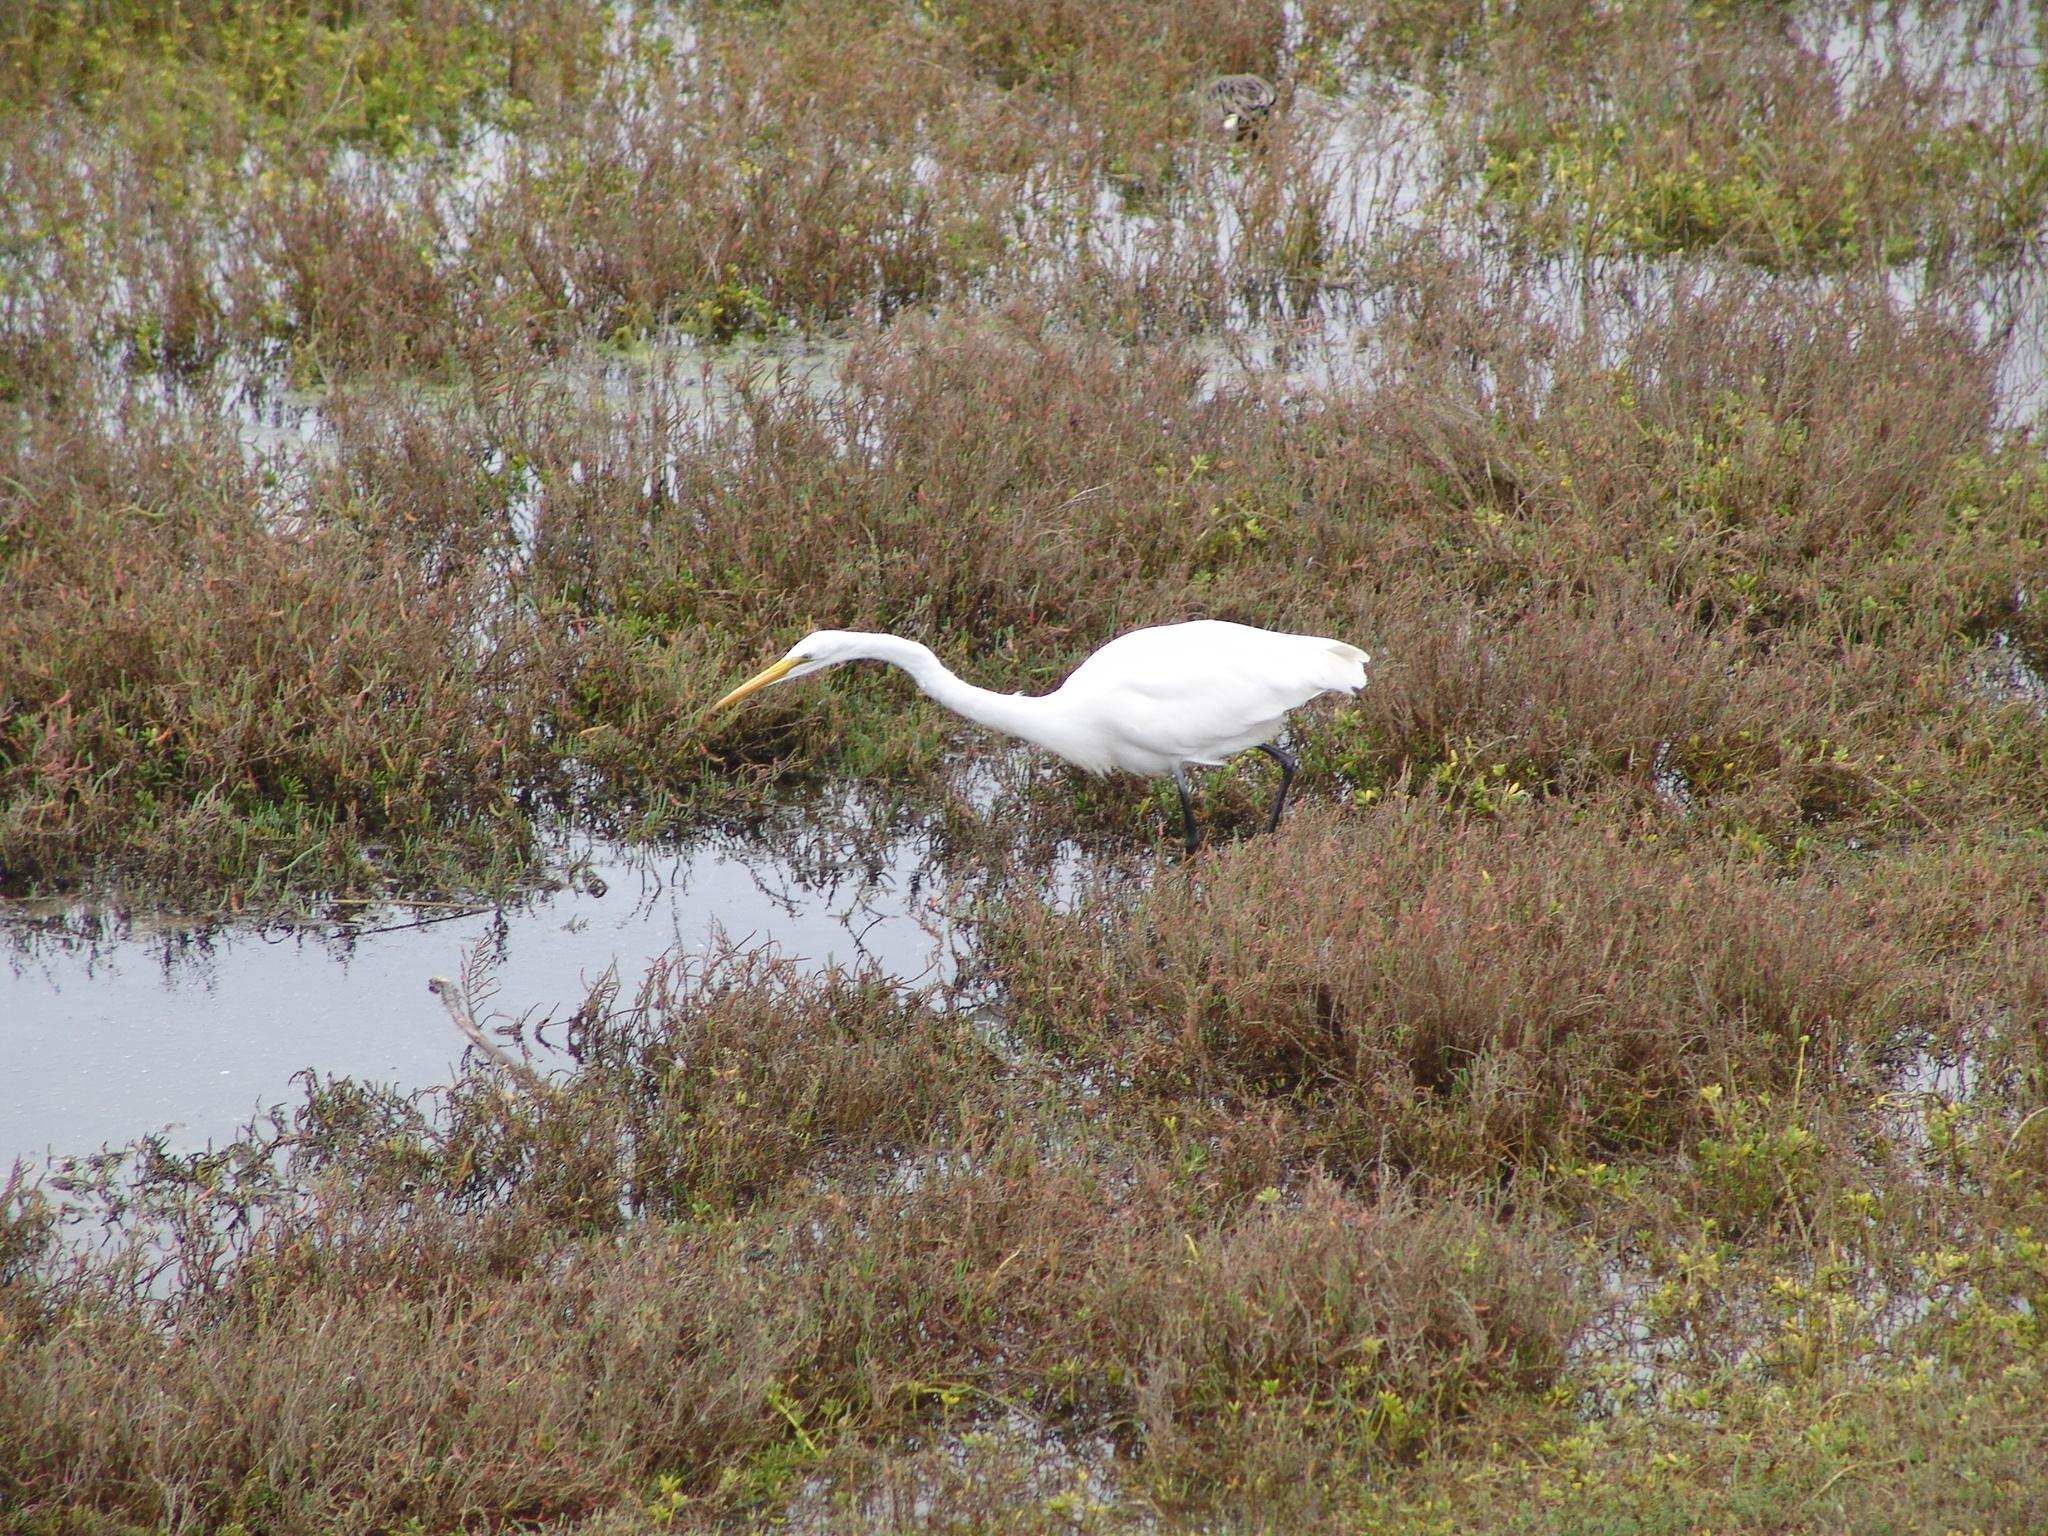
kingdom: Animalia
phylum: Chordata
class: Aves
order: Pelecaniformes
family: Ardeidae
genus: Ardea
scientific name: Ardea alba
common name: Great egret
